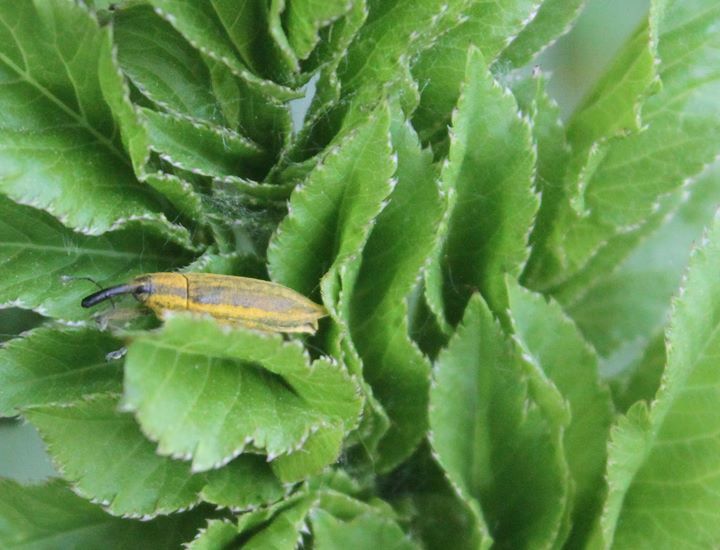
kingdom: Animalia
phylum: Arthropoda
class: Insecta
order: Coleoptera
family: Curculionidae
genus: Lixus
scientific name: Lixus iridis
